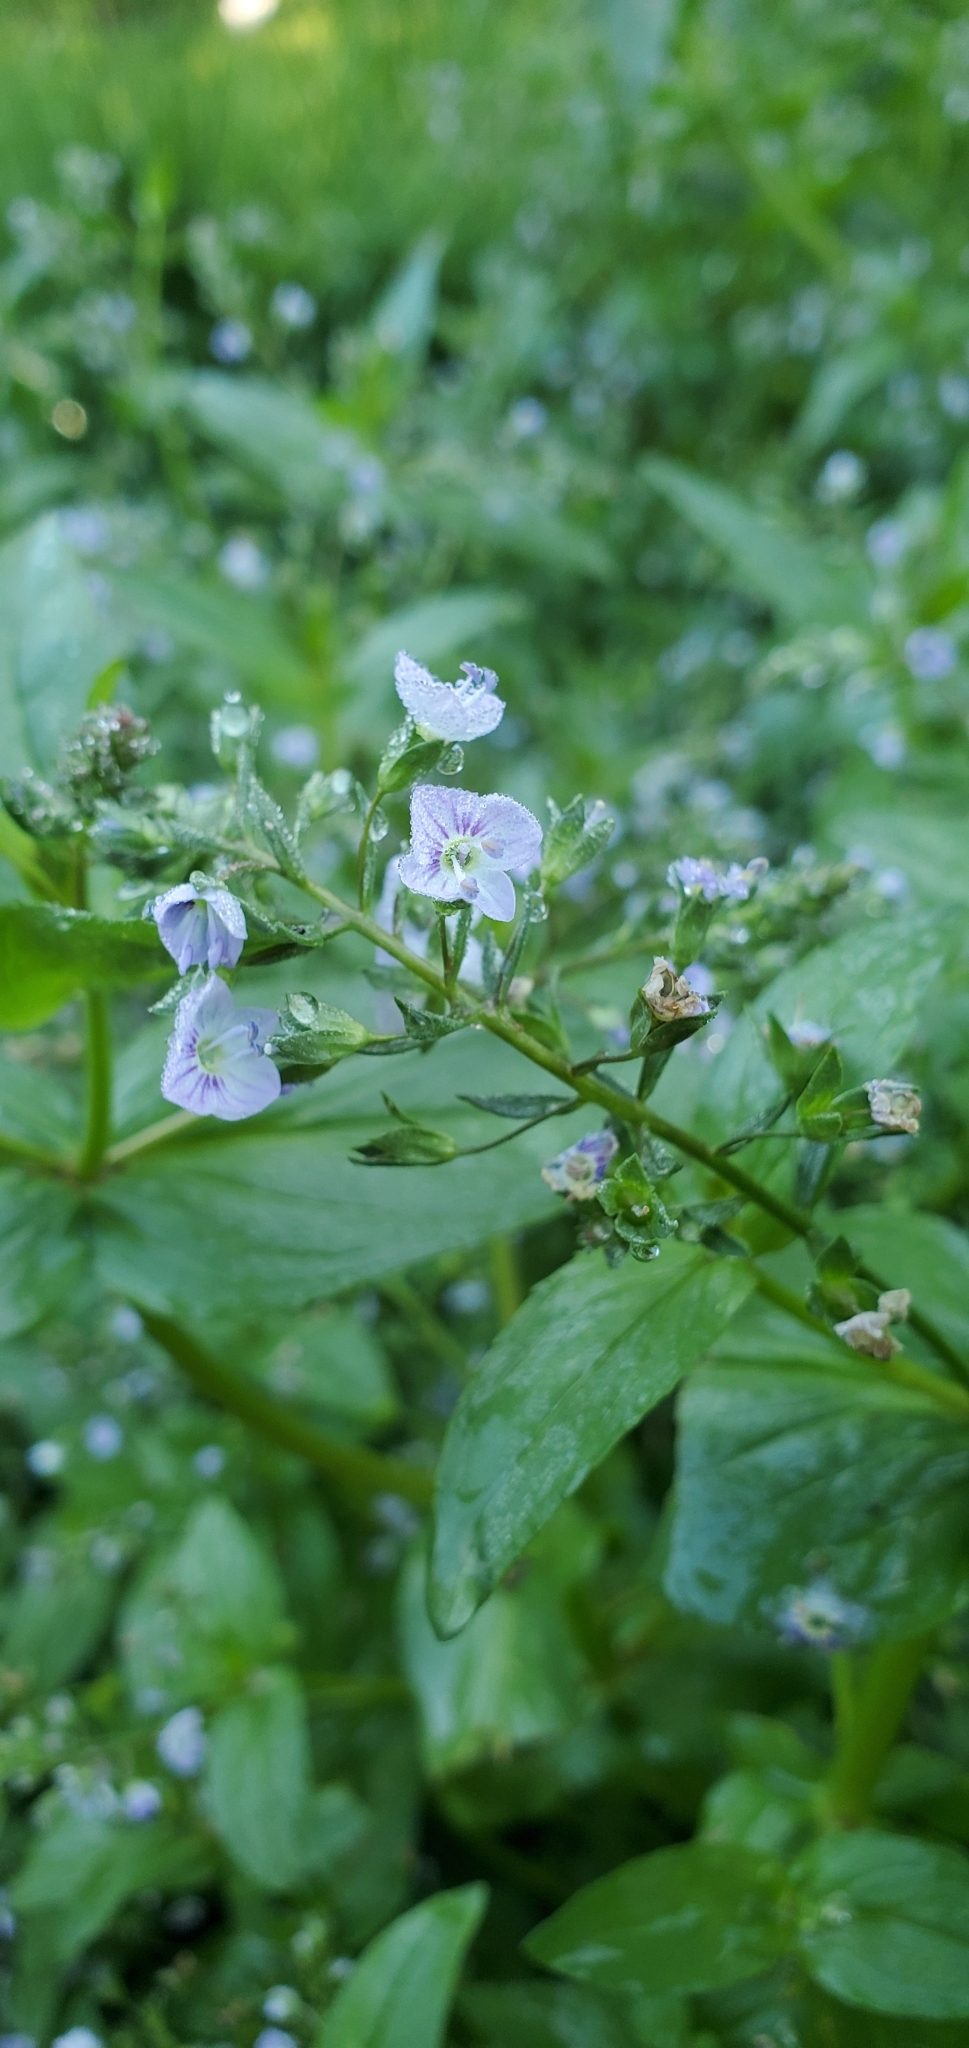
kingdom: Plantae
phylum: Tracheophyta
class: Magnoliopsida
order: Lamiales
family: Plantaginaceae
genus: Veronica
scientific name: Veronica anagallis-aquatica
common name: Water speedwell
